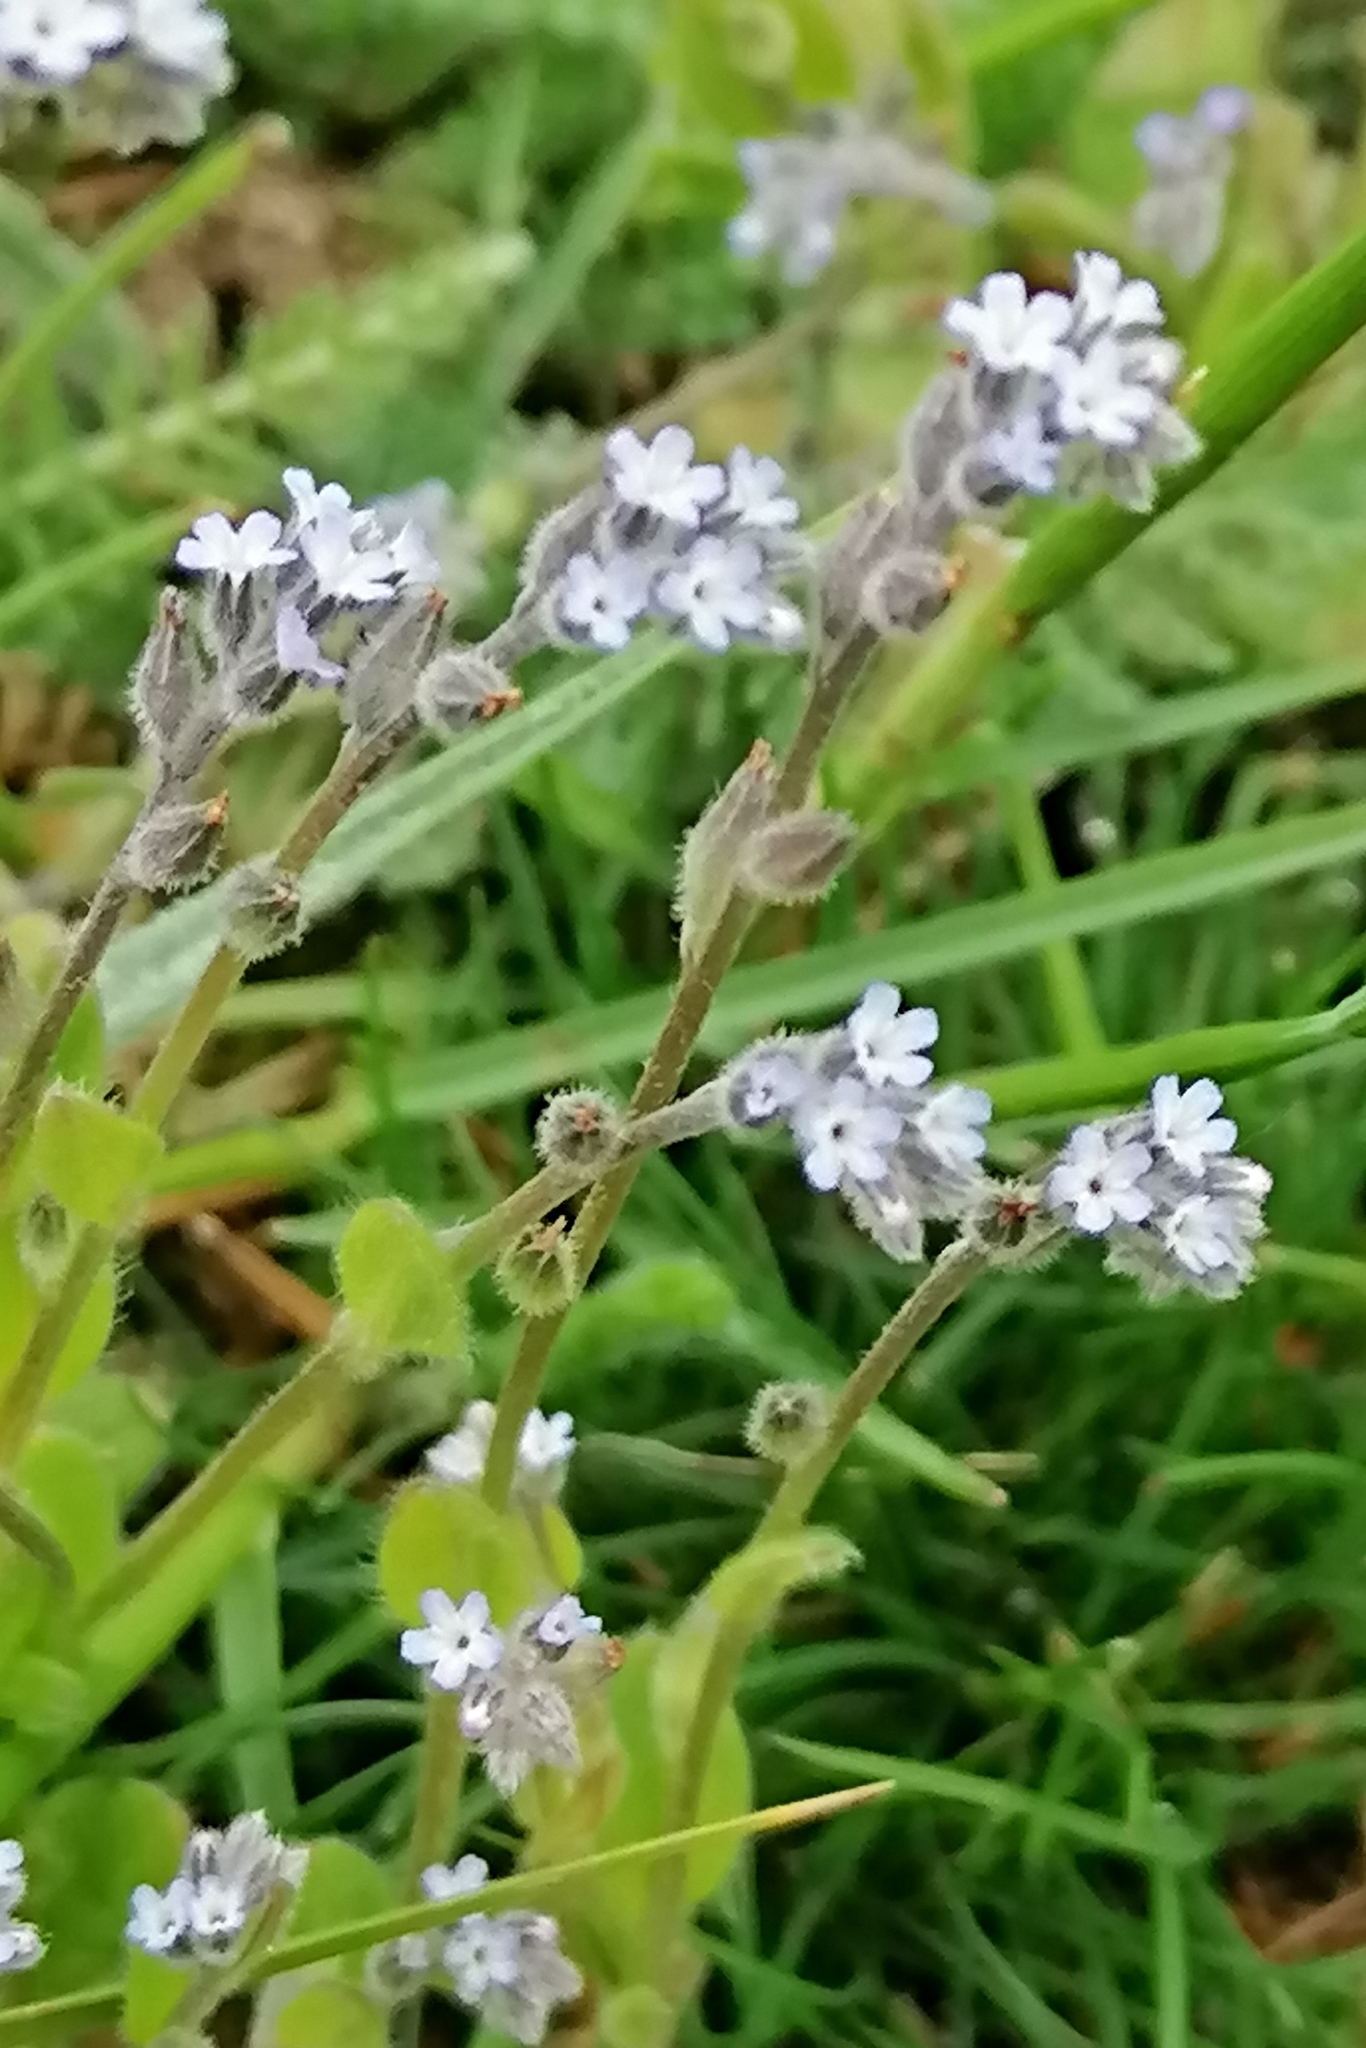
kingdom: Plantae
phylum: Tracheophyta
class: Magnoliopsida
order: Boraginales
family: Boraginaceae
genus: Myosotis
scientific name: Myosotis stricta
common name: Strict forget-me-not
